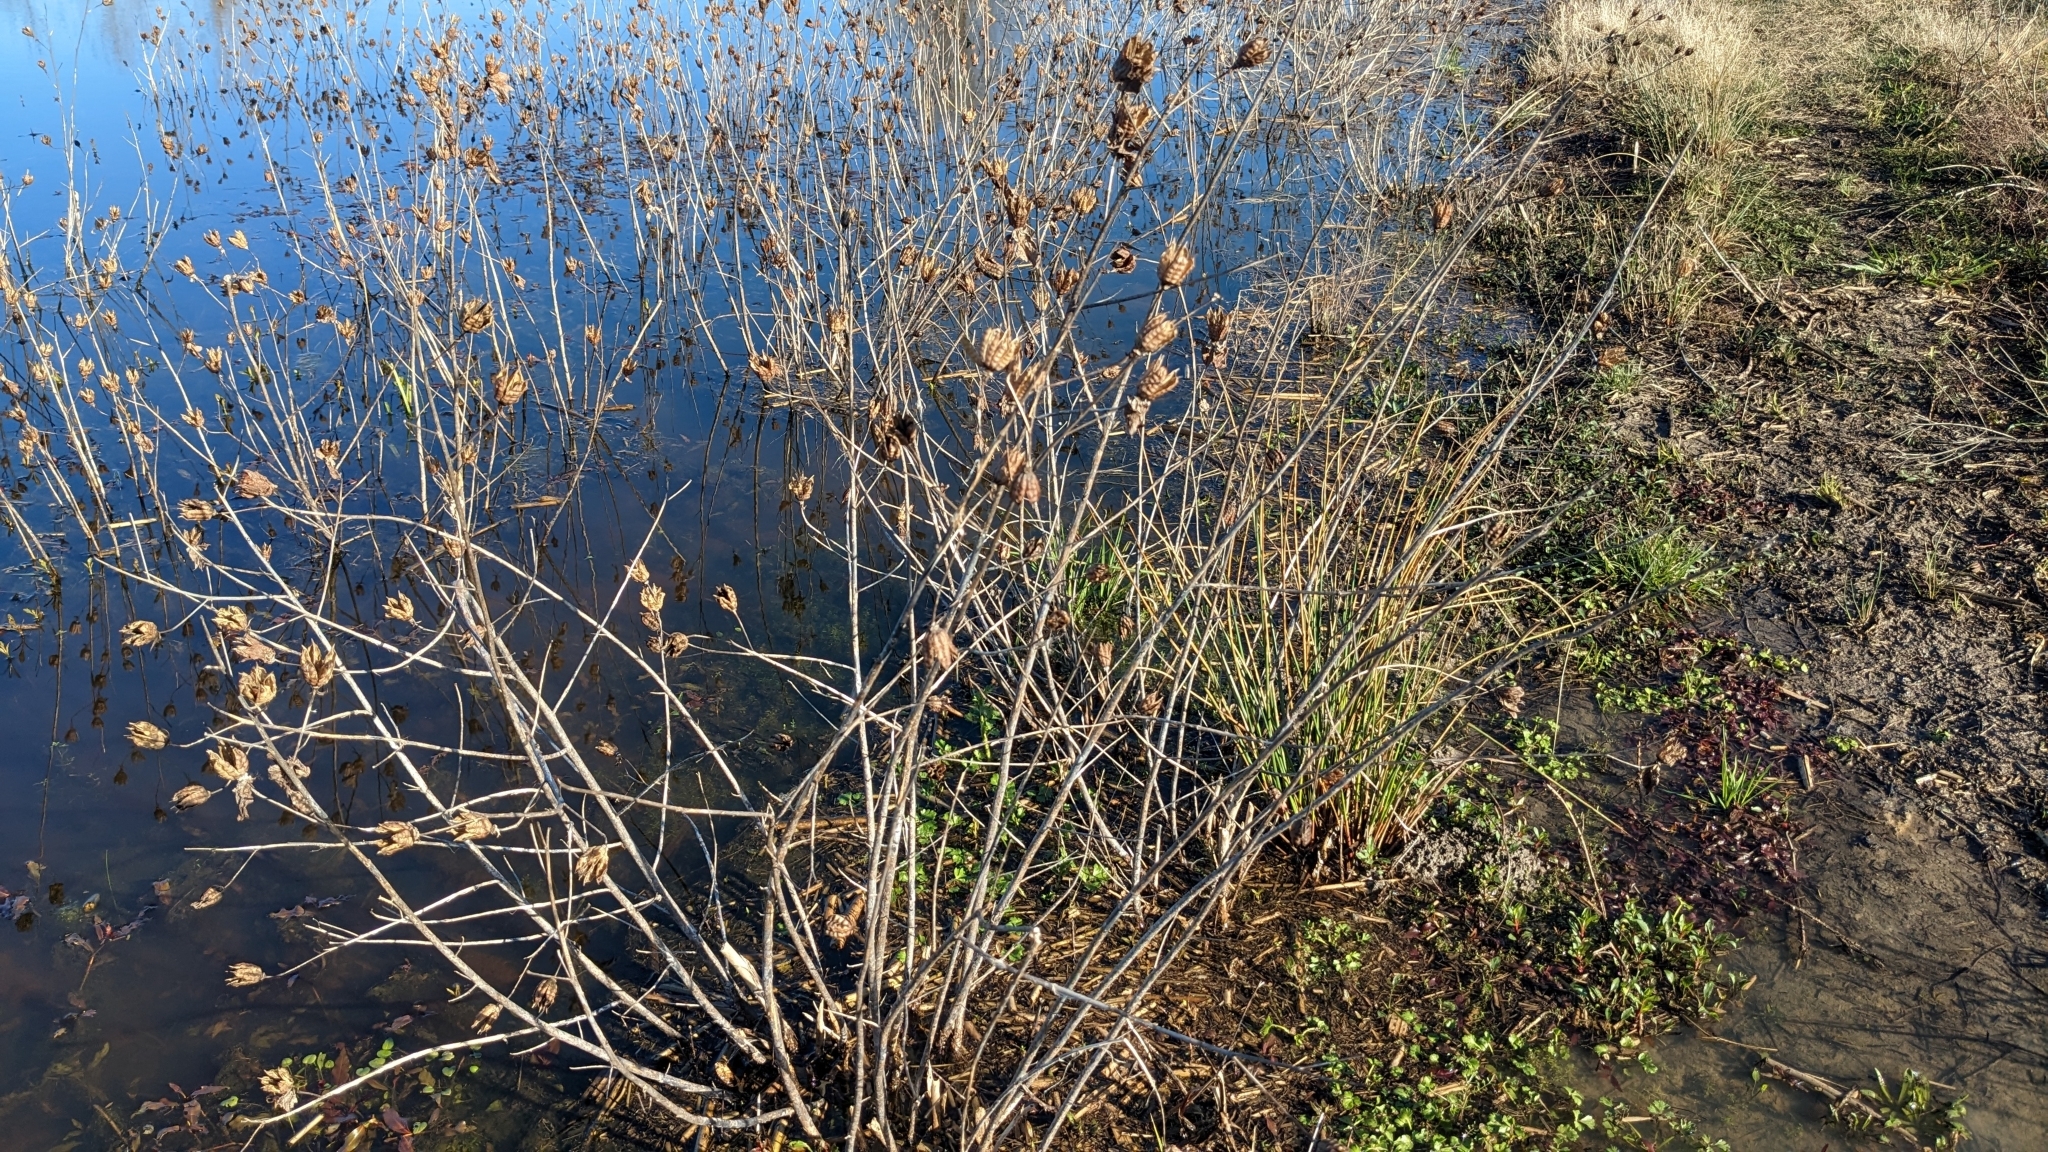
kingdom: Plantae
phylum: Tracheophyta
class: Magnoliopsida
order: Malvales
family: Malvaceae
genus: Hibiscus
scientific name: Hibiscus laevis
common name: Scarlet rose-mallow
